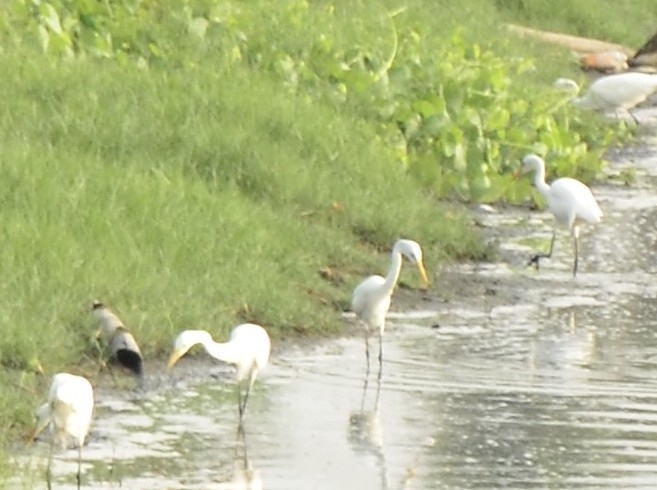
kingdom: Animalia
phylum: Chordata
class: Aves
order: Pelecaniformes
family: Ardeidae
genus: Egretta
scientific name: Egretta intermedia
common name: Intermediate egret
